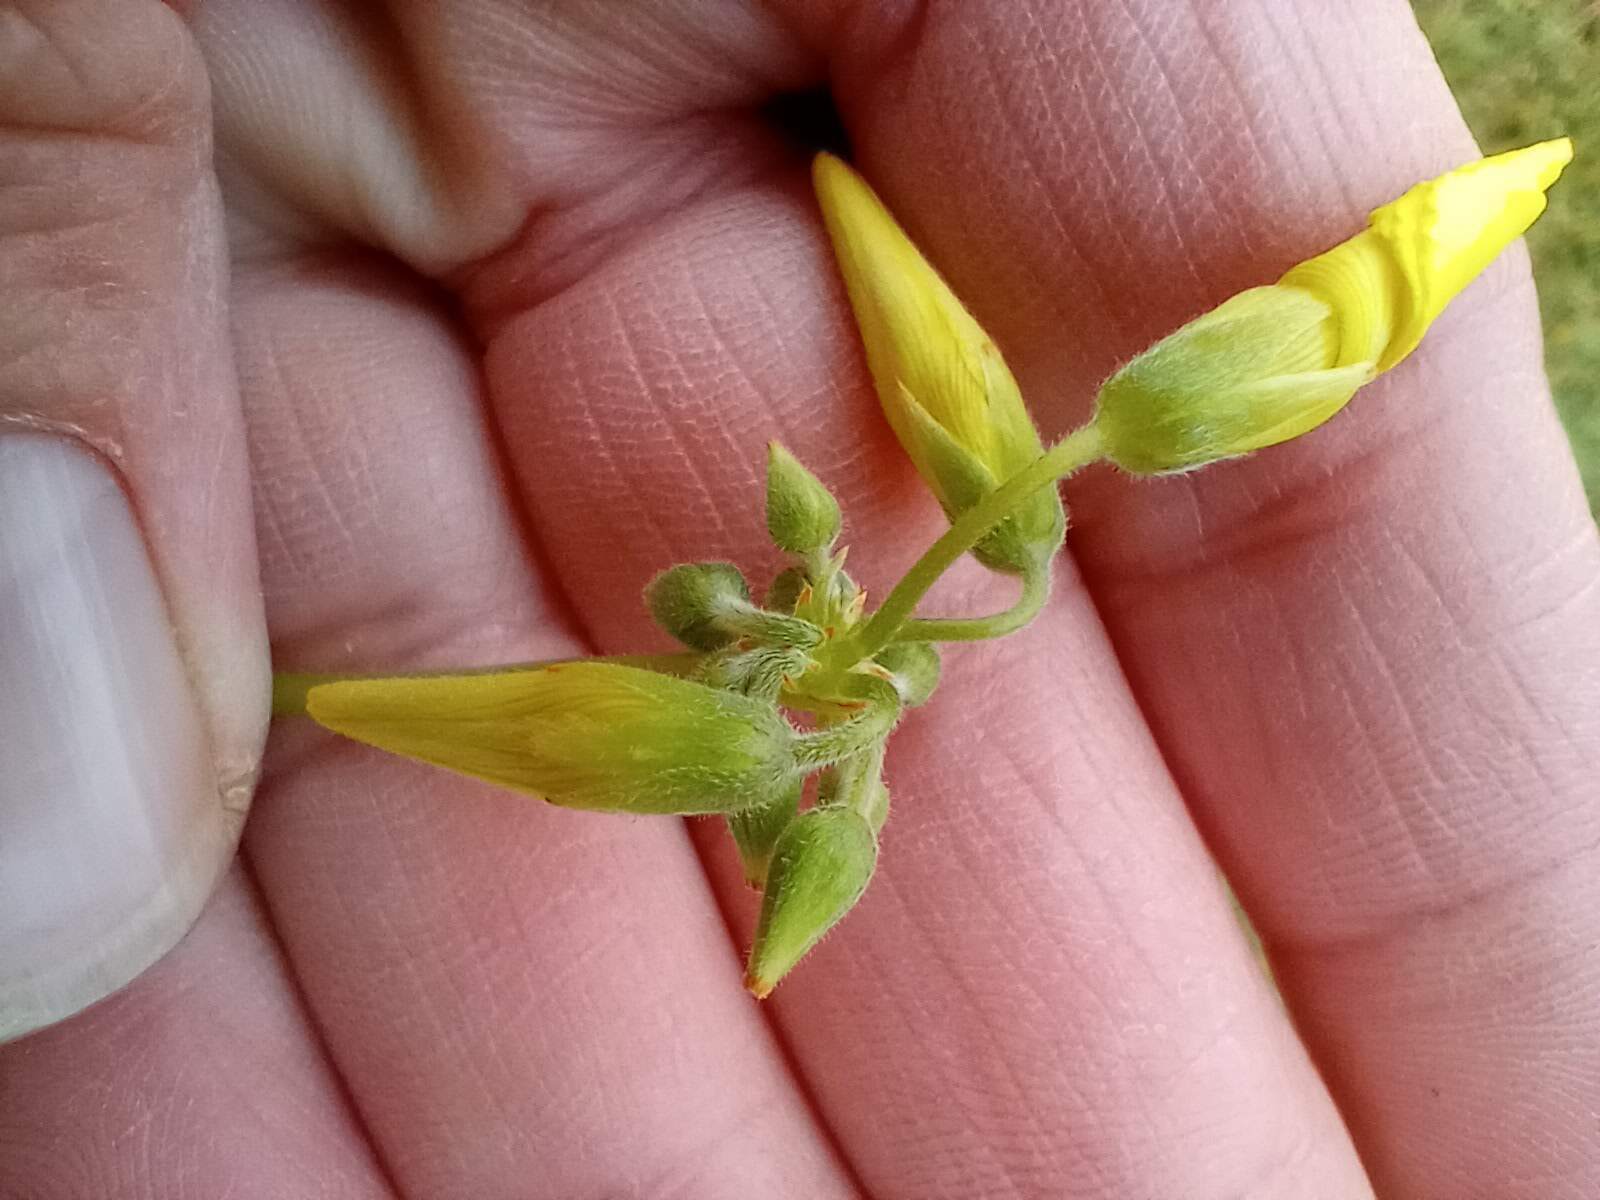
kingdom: Plantae
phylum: Tracheophyta
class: Magnoliopsida
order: Oxalidales
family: Oxalidaceae
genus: Oxalis
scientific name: Oxalis pes-caprae
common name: Bermuda-buttercup
